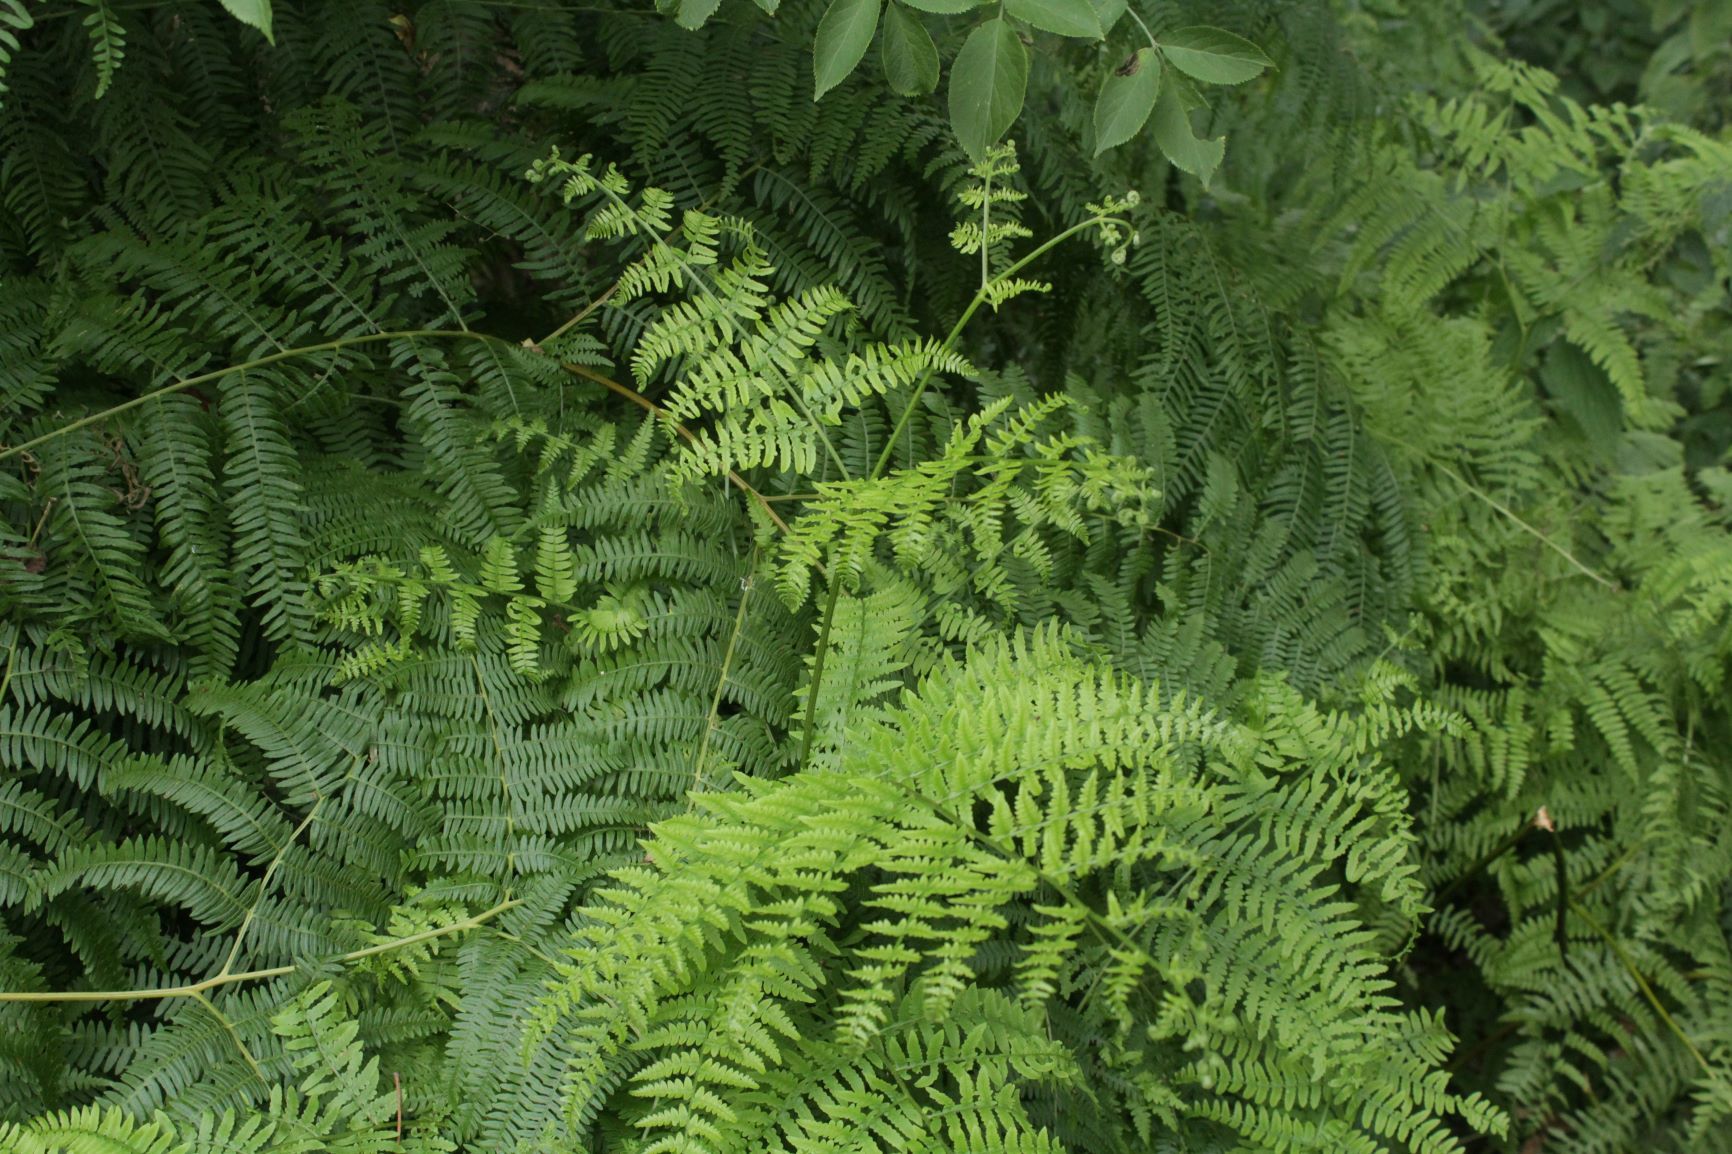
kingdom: Plantae
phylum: Tracheophyta
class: Polypodiopsida
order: Polypodiales
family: Dennstaedtiaceae
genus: Pteridium
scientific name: Pteridium aquilinum
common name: Bracken
